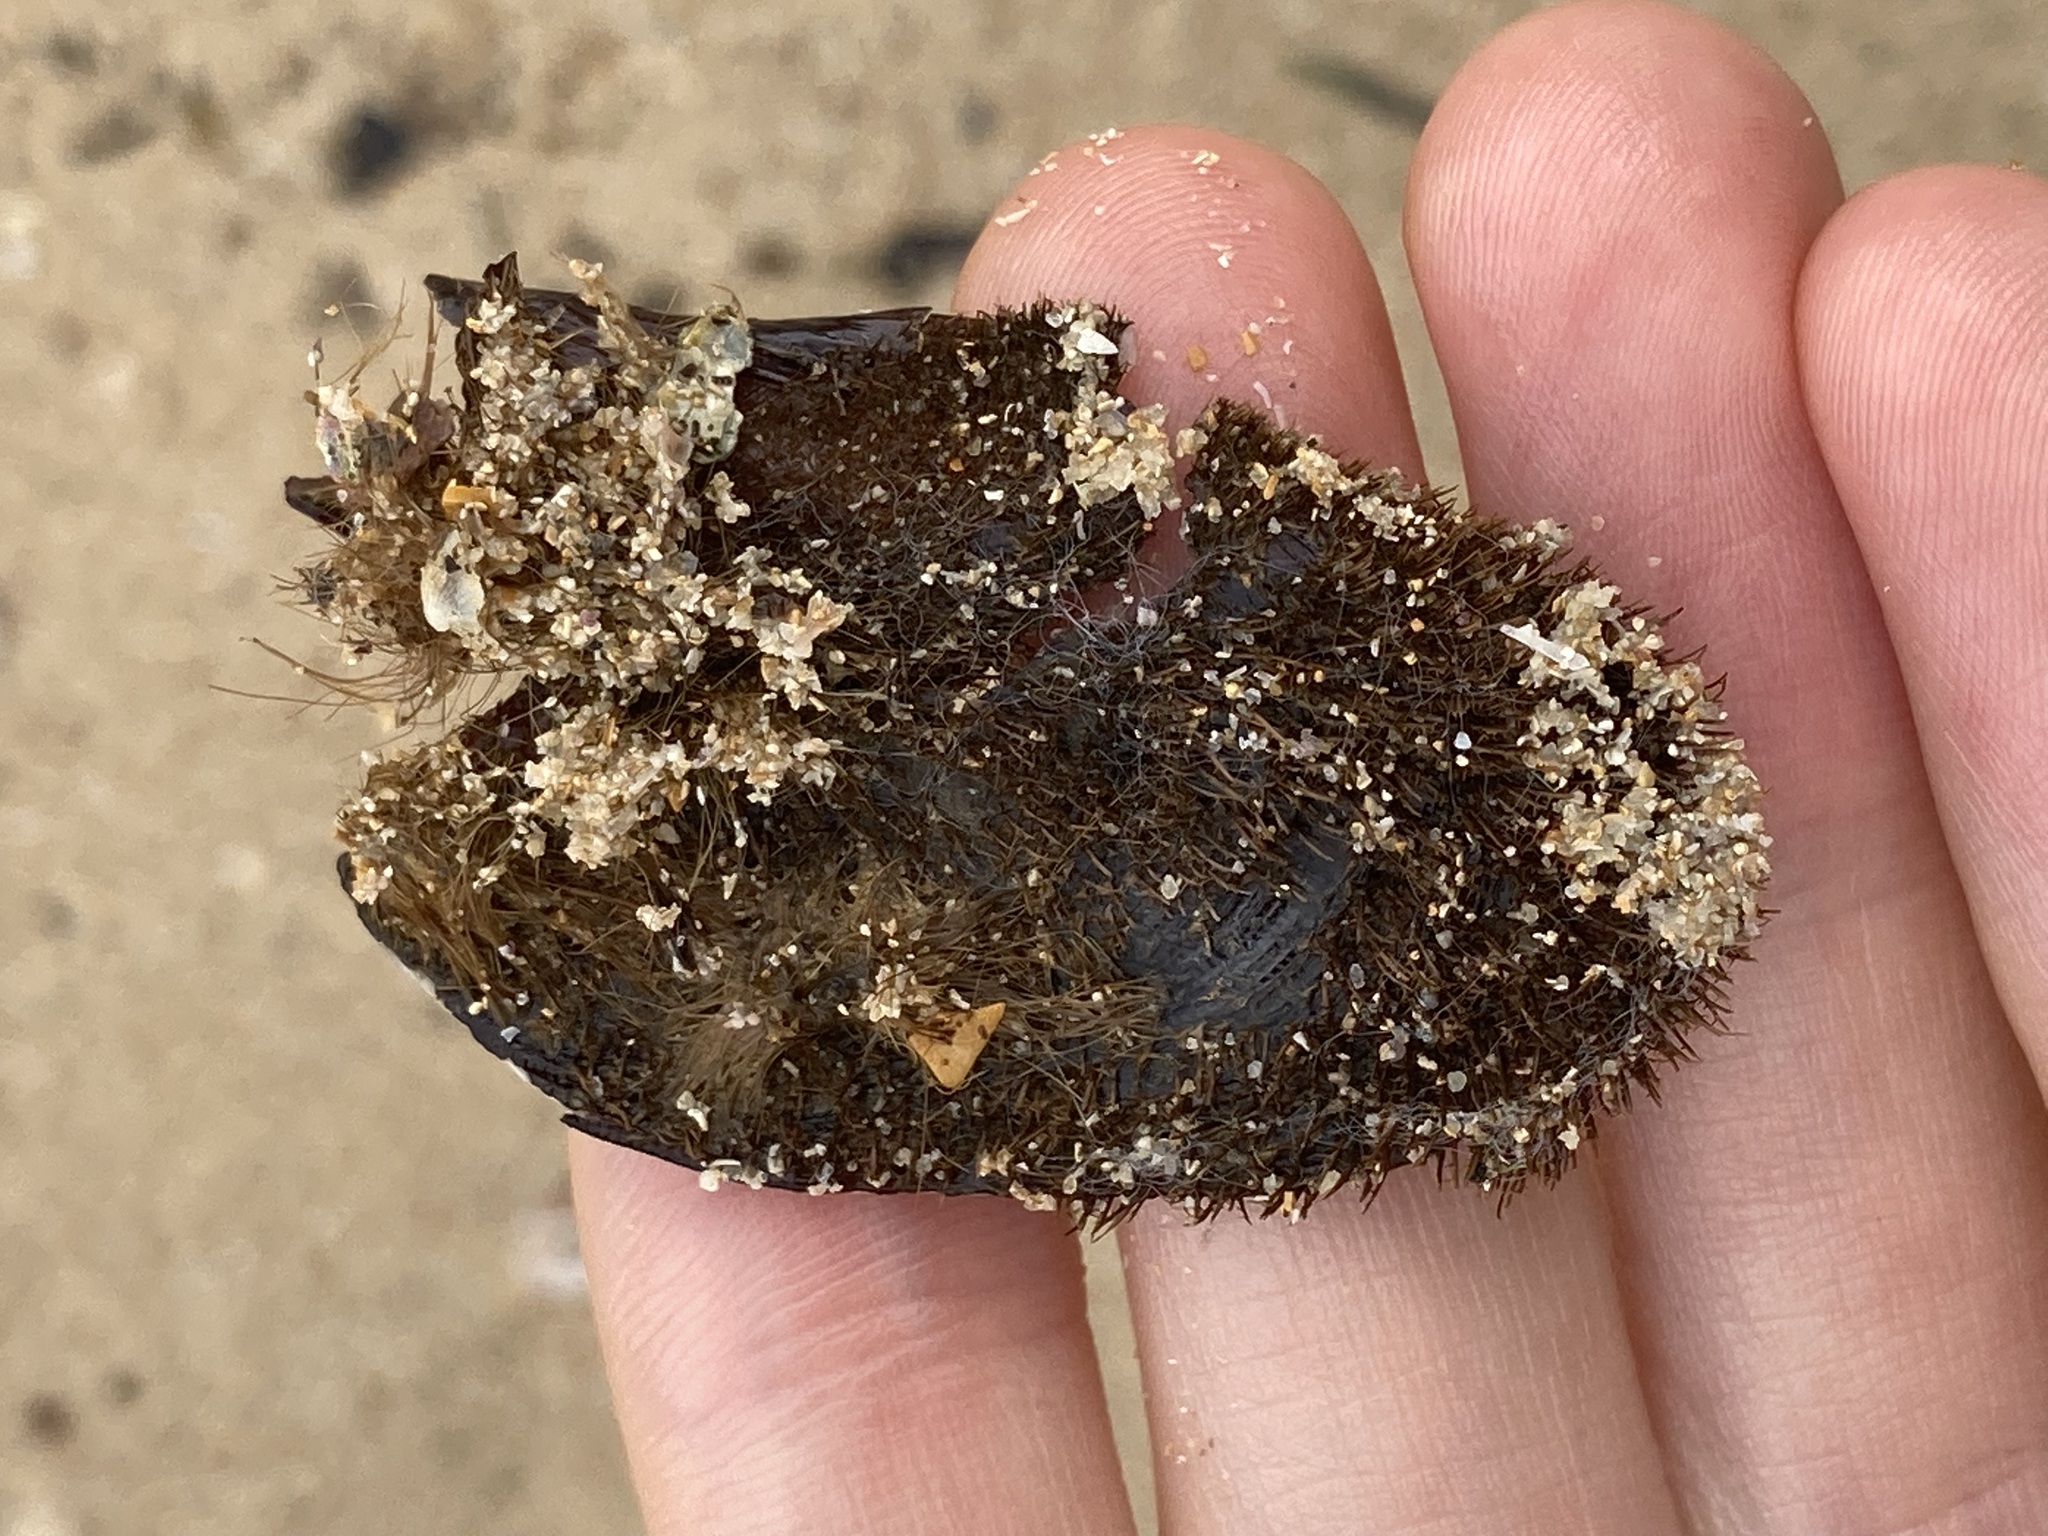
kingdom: Animalia
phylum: Mollusca
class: Bivalvia
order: Mytilida
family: Mytilidae
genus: Trichomya
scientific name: Trichomya hirsuta
